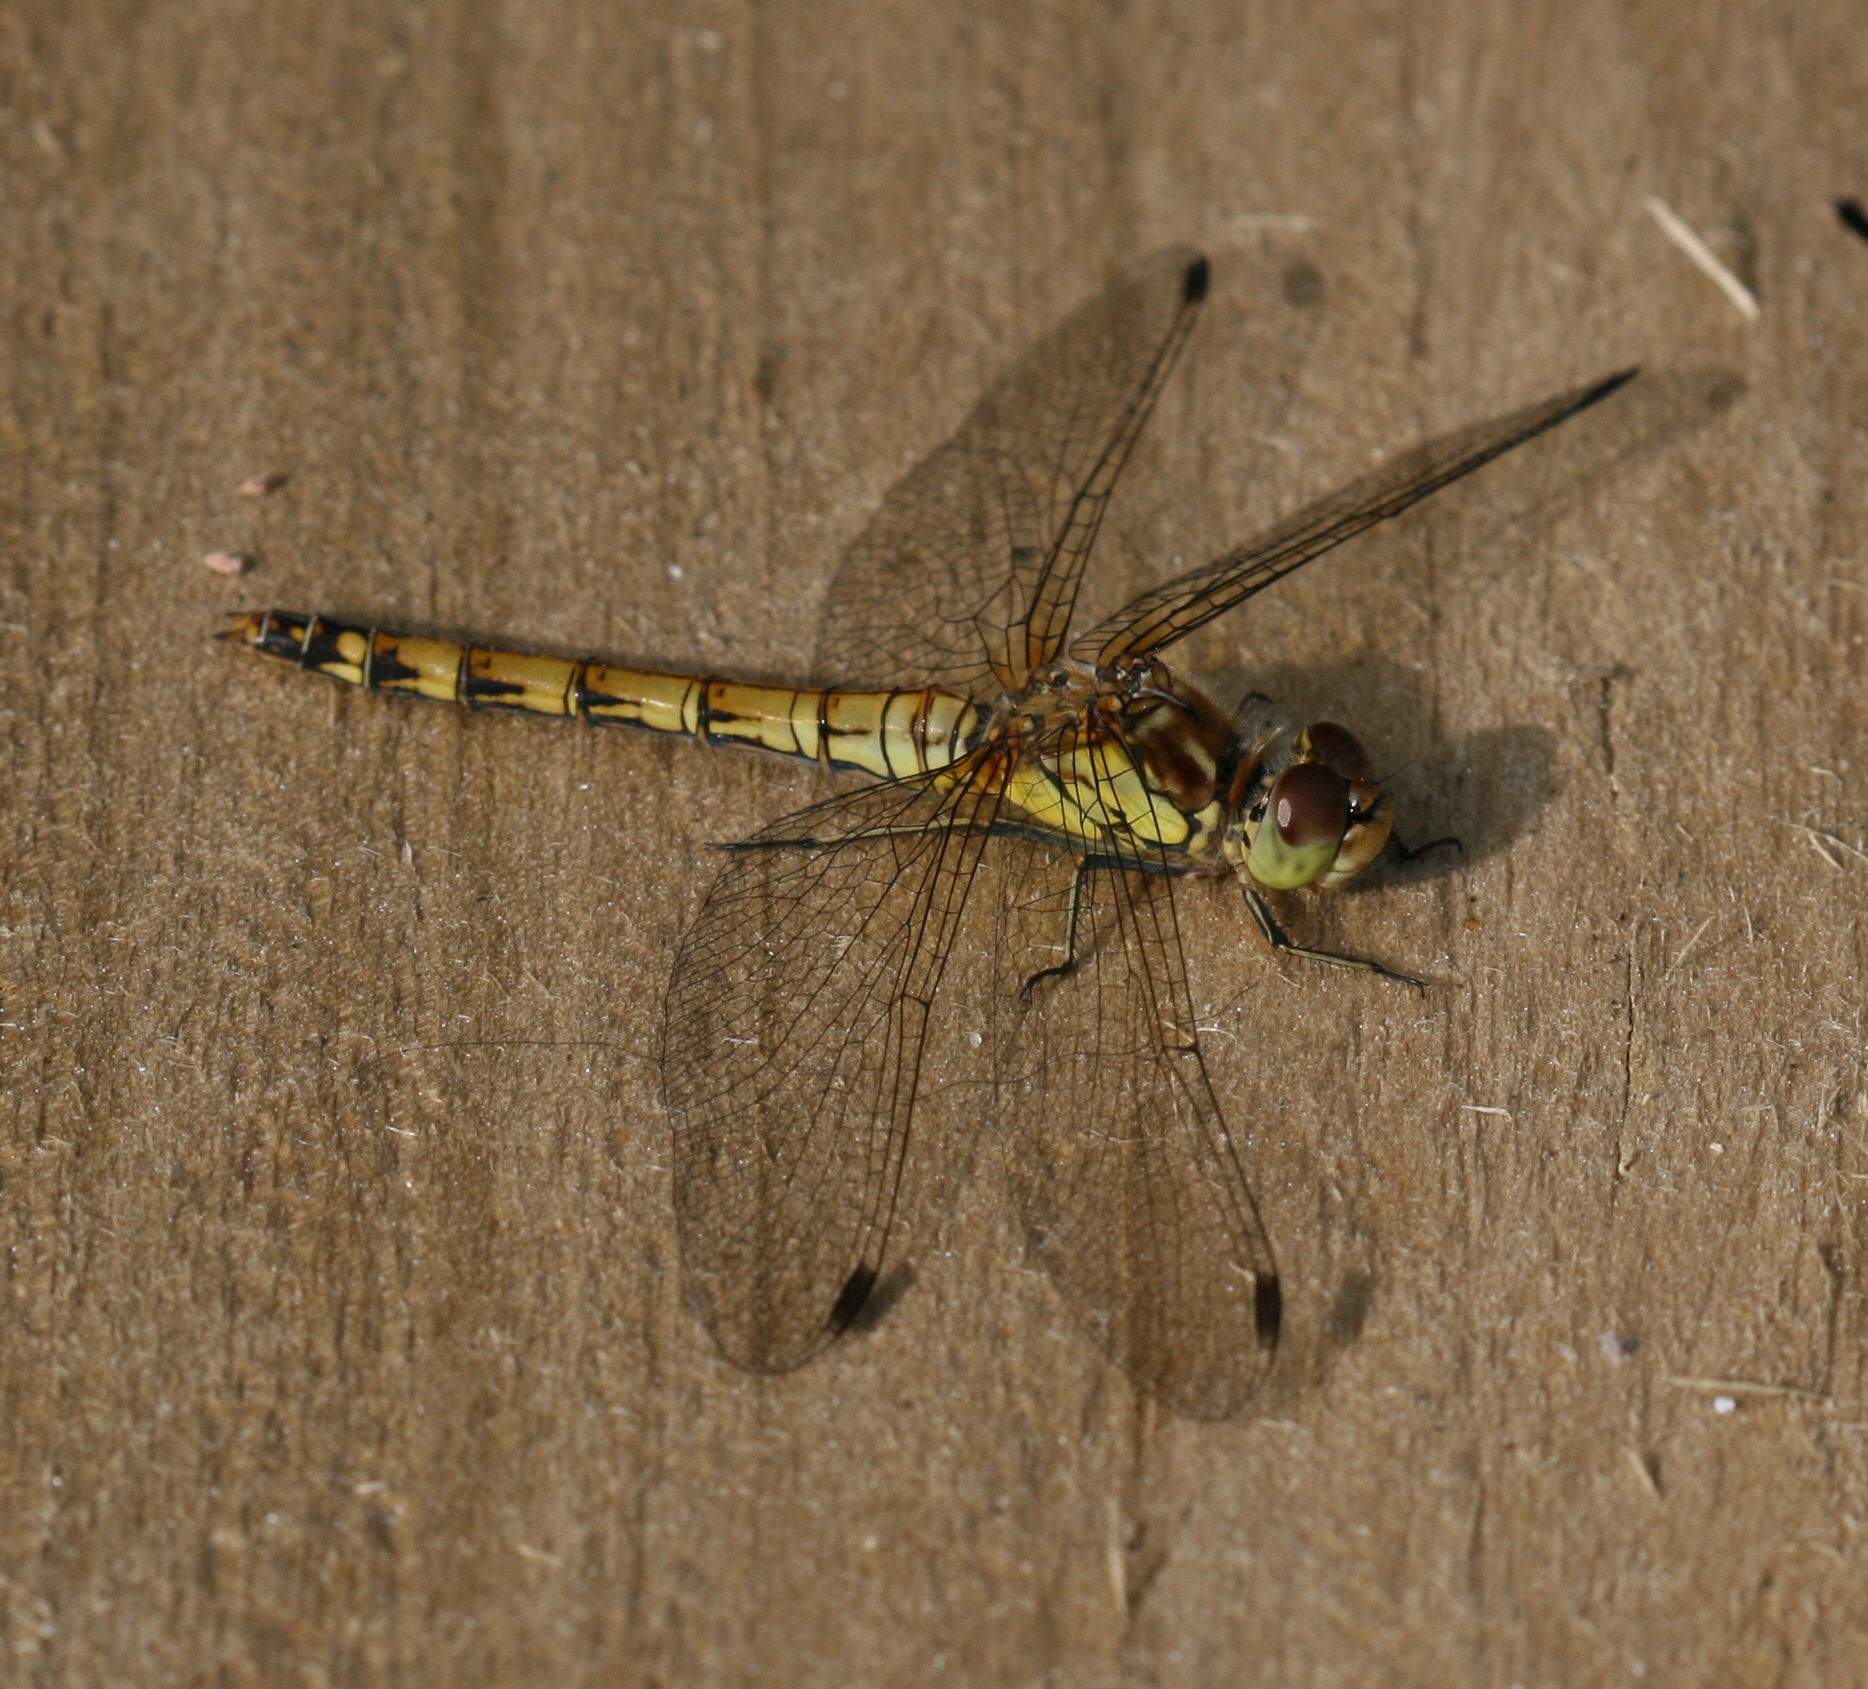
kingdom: Animalia
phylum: Arthropoda
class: Insecta
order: Odonata
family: Libellulidae
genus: Sympetrum
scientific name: Sympetrum striolatum
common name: Common darter
